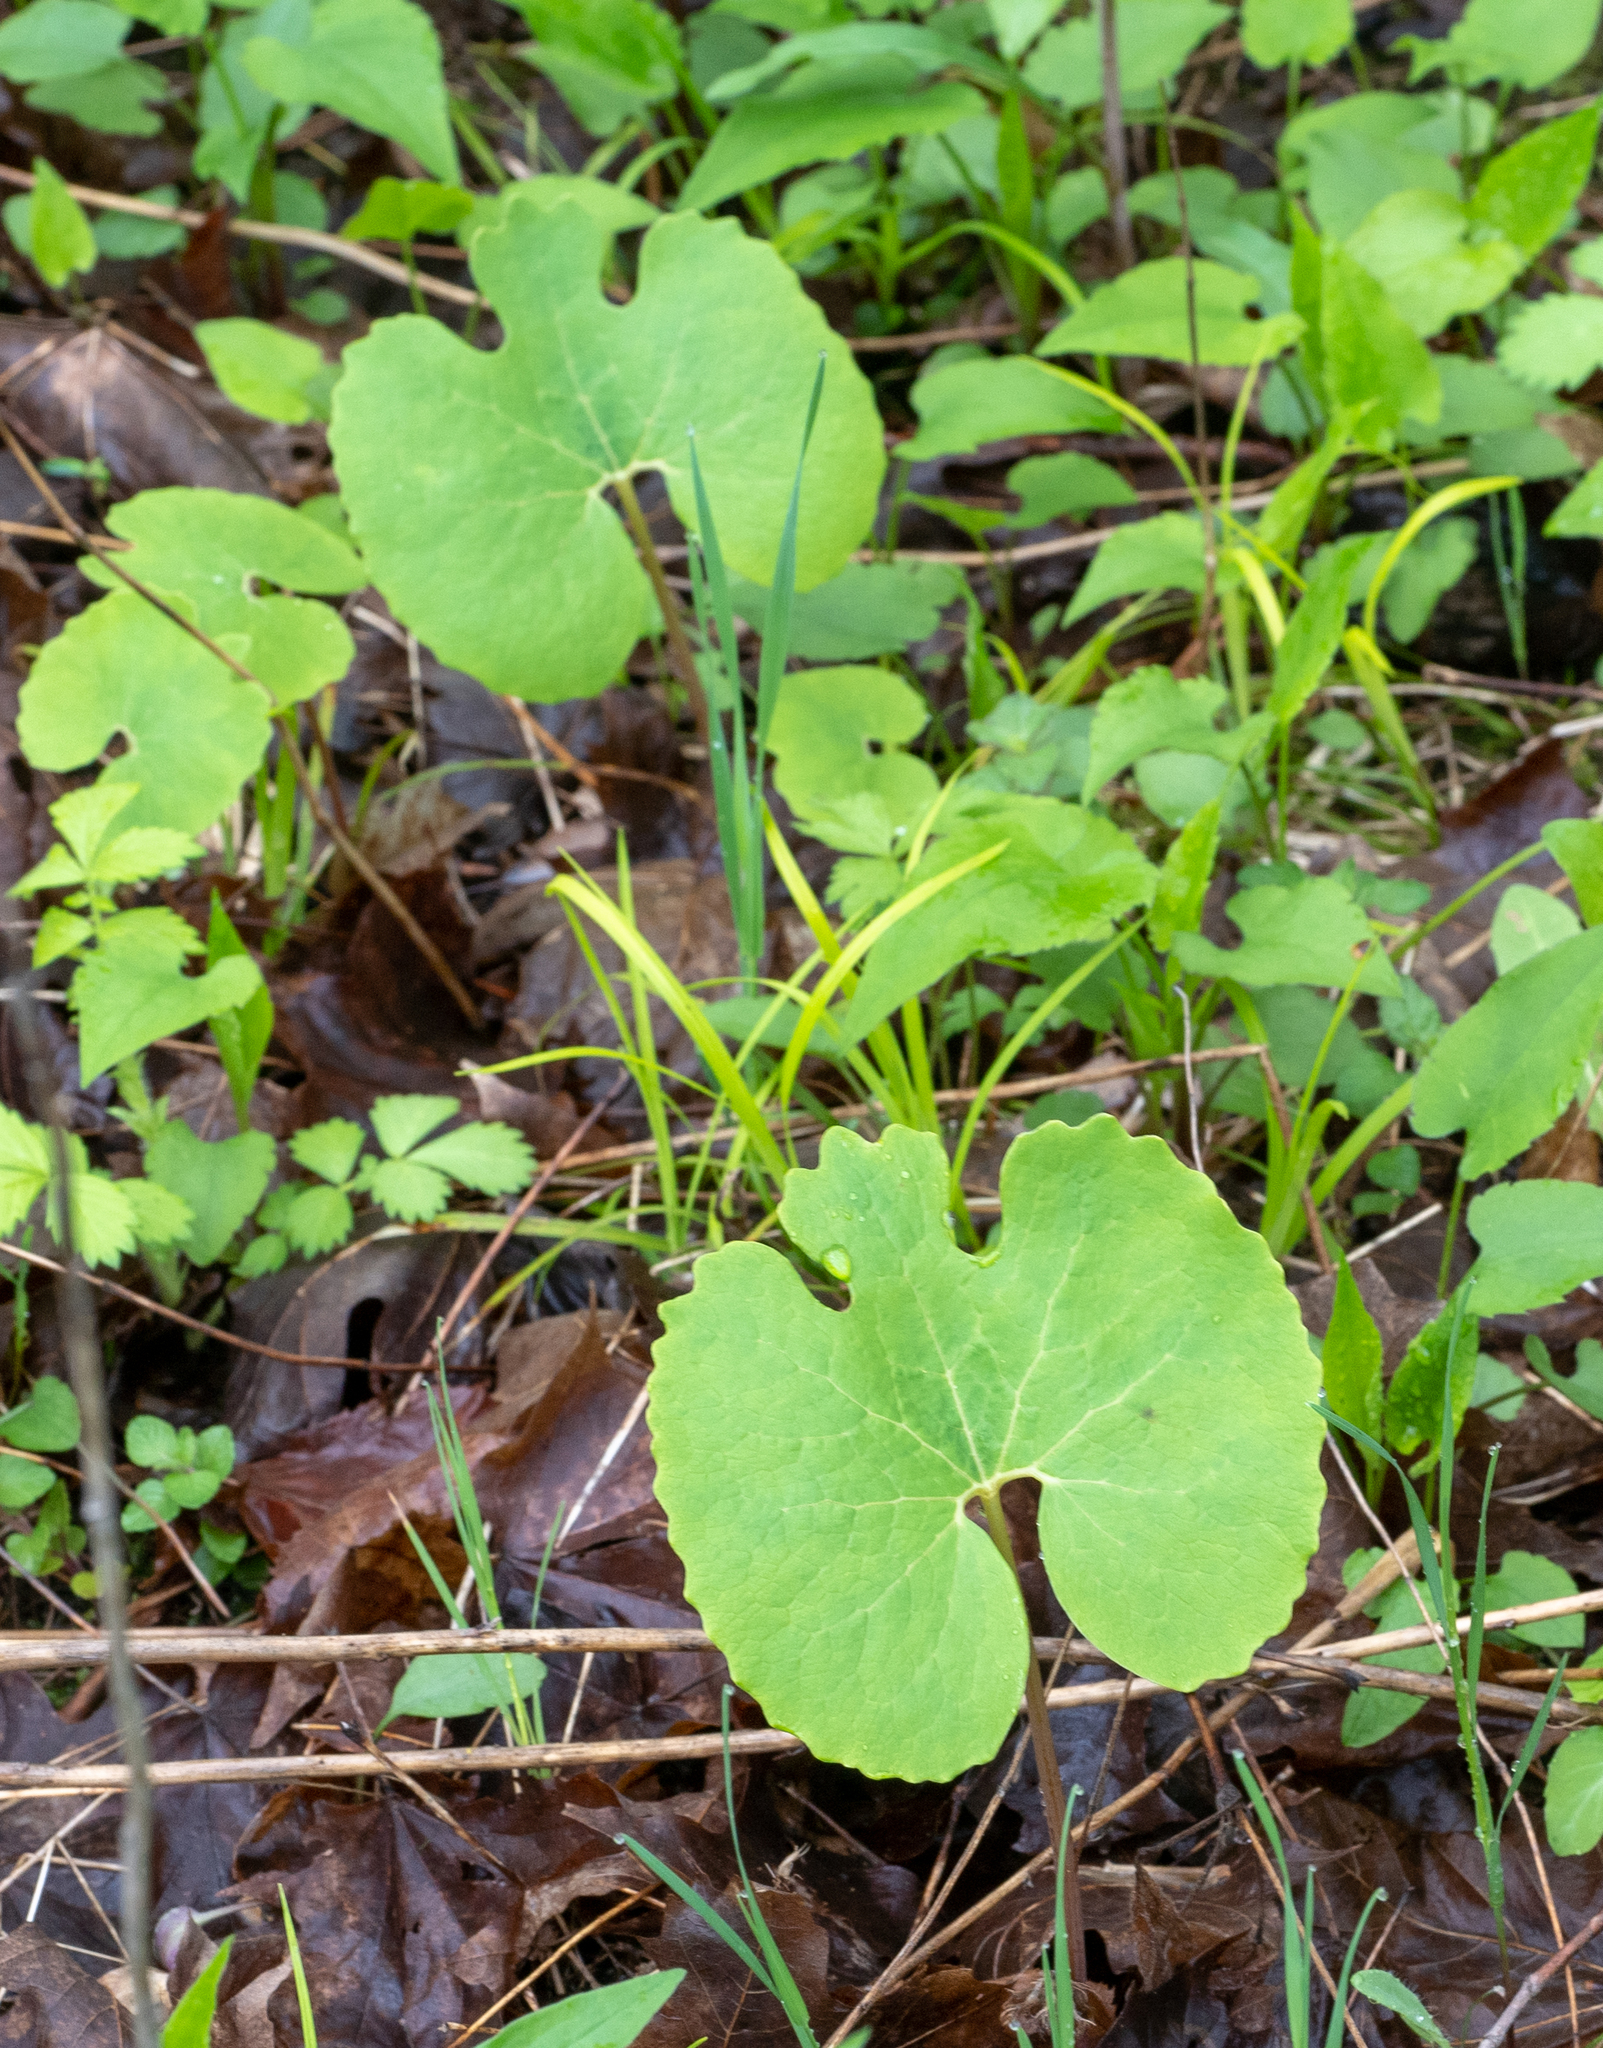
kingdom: Plantae
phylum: Tracheophyta
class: Magnoliopsida
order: Ranunculales
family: Papaveraceae
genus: Sanguinaria
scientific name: Sanguinaria canadensis
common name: Bloodroot
